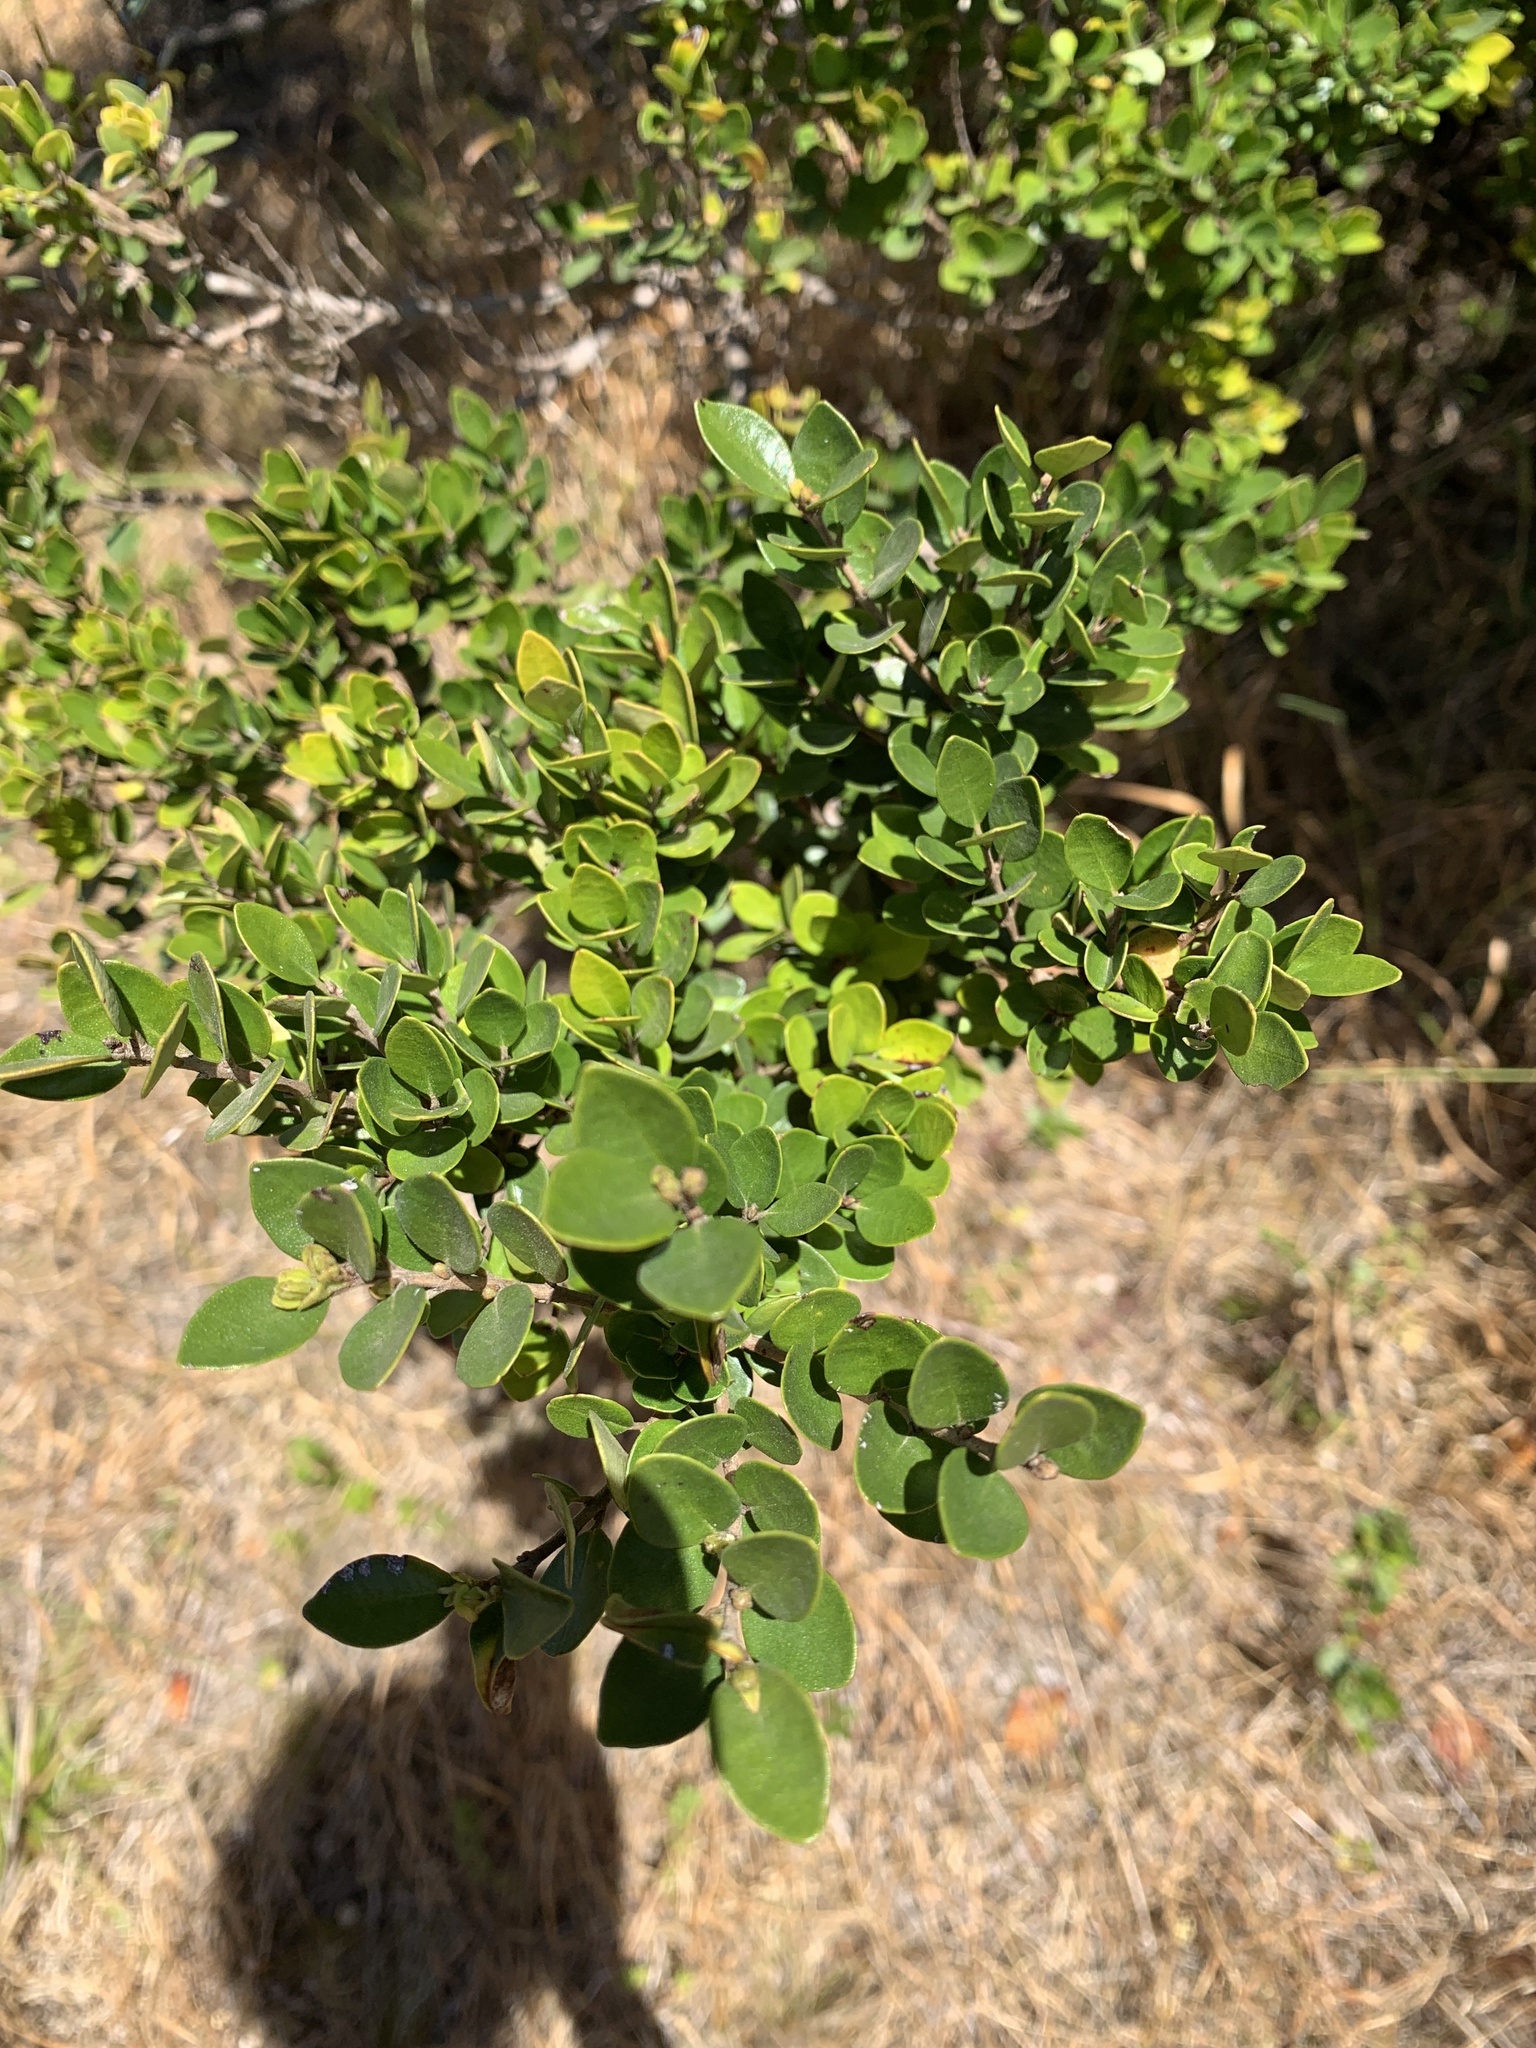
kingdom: Plantae
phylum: Tracheophyta
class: Magnoliopsida
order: Myrtales
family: Myrtaceae
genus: Myrceugenia
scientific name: Myrceugenia obtusa
